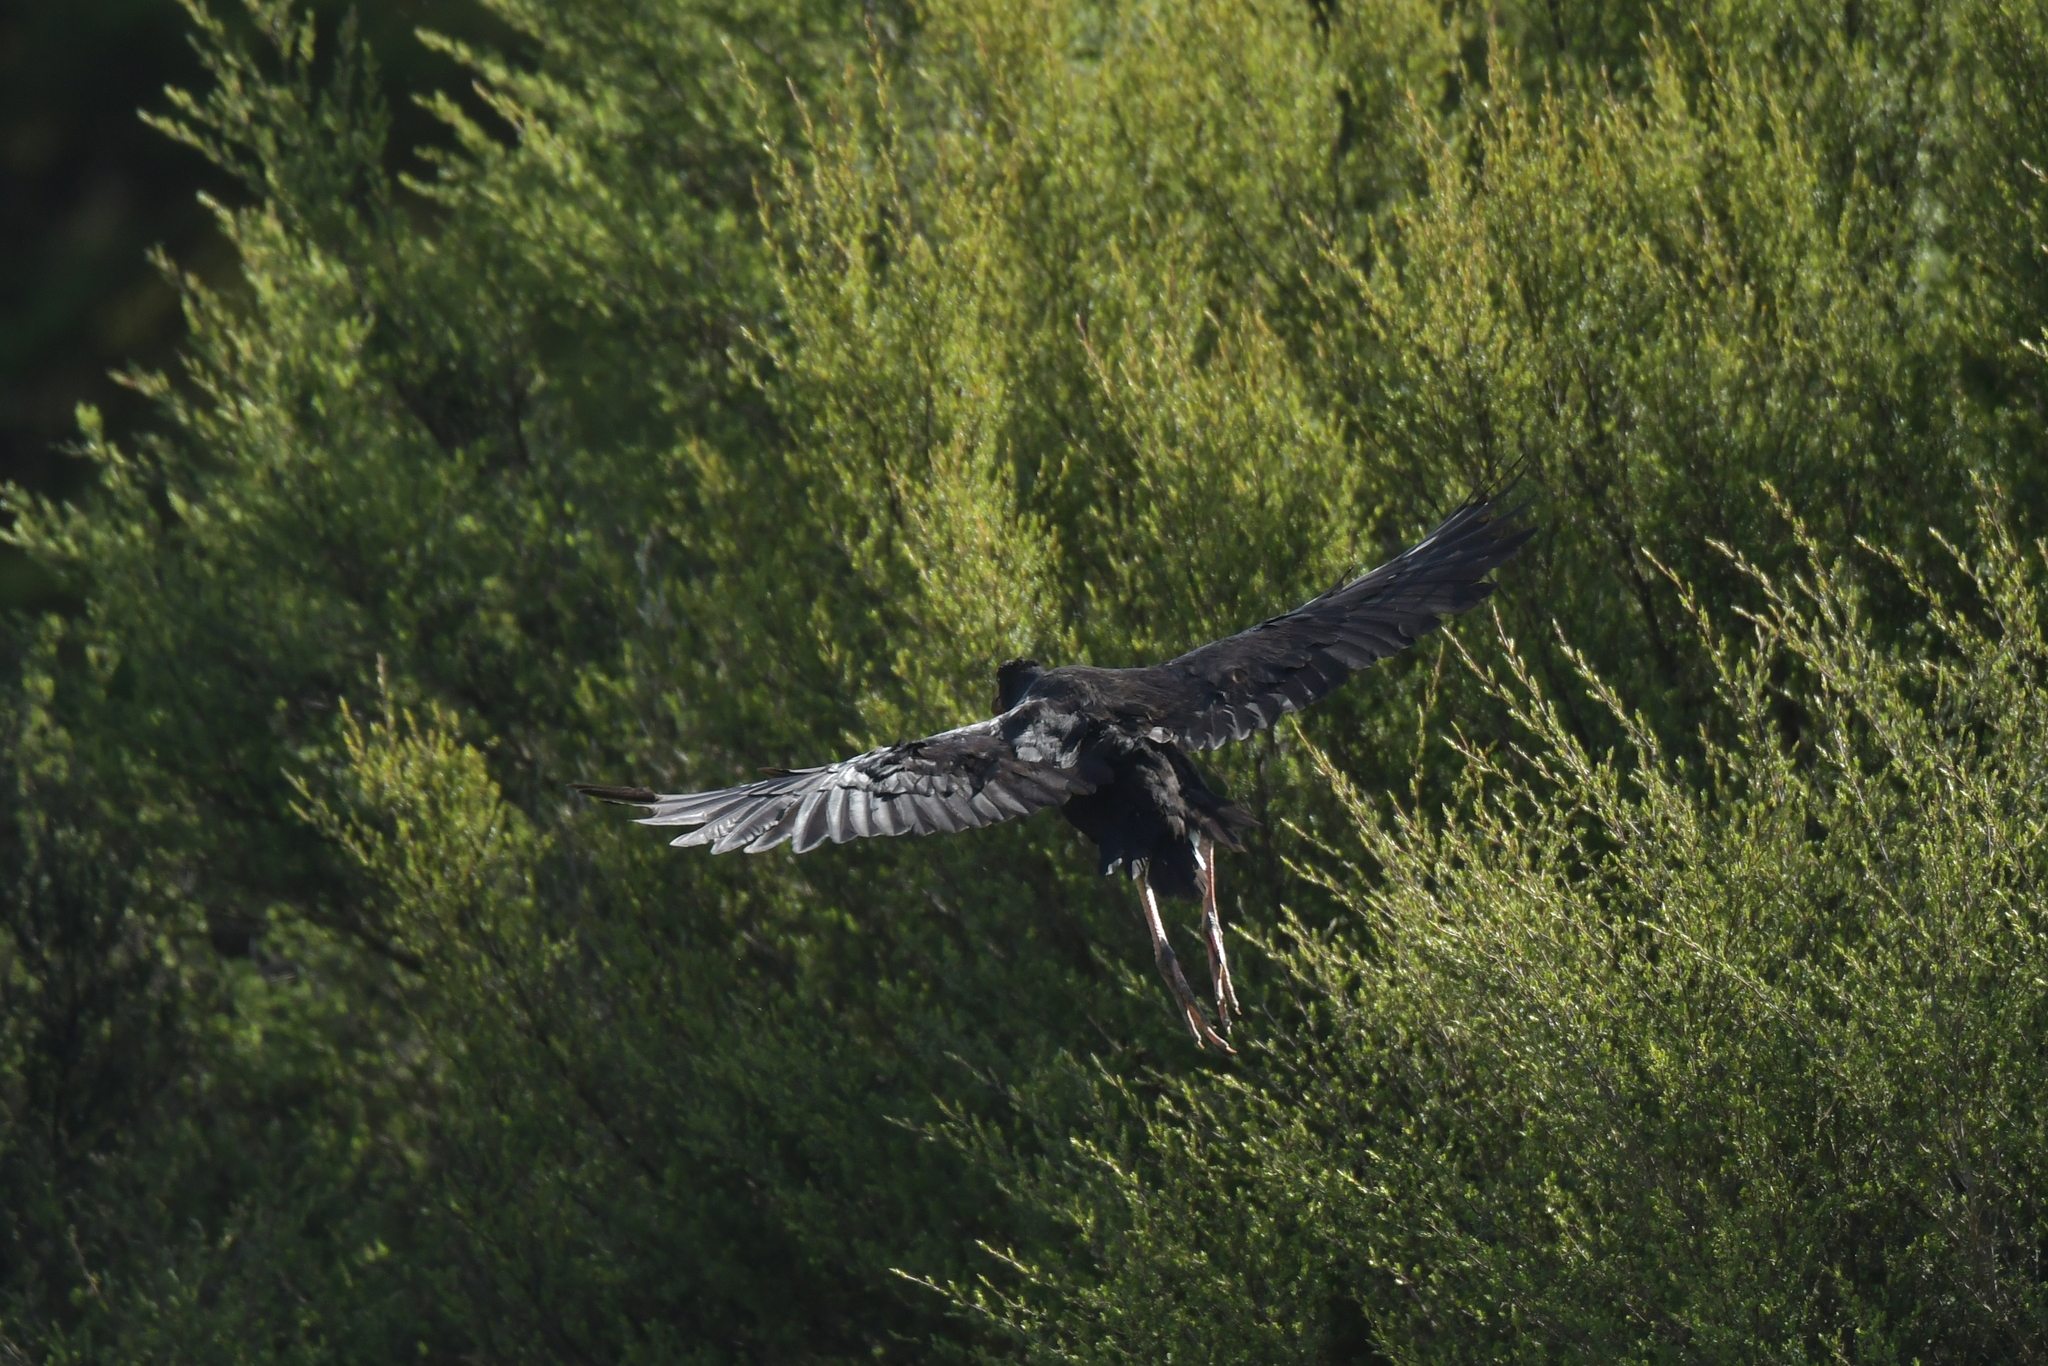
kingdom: Animalia
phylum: Chordata
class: Aves
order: Gruiformes
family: Rallidae
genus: Porphyrio
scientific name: Porphyrio melanotus
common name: Australasian swamphen
